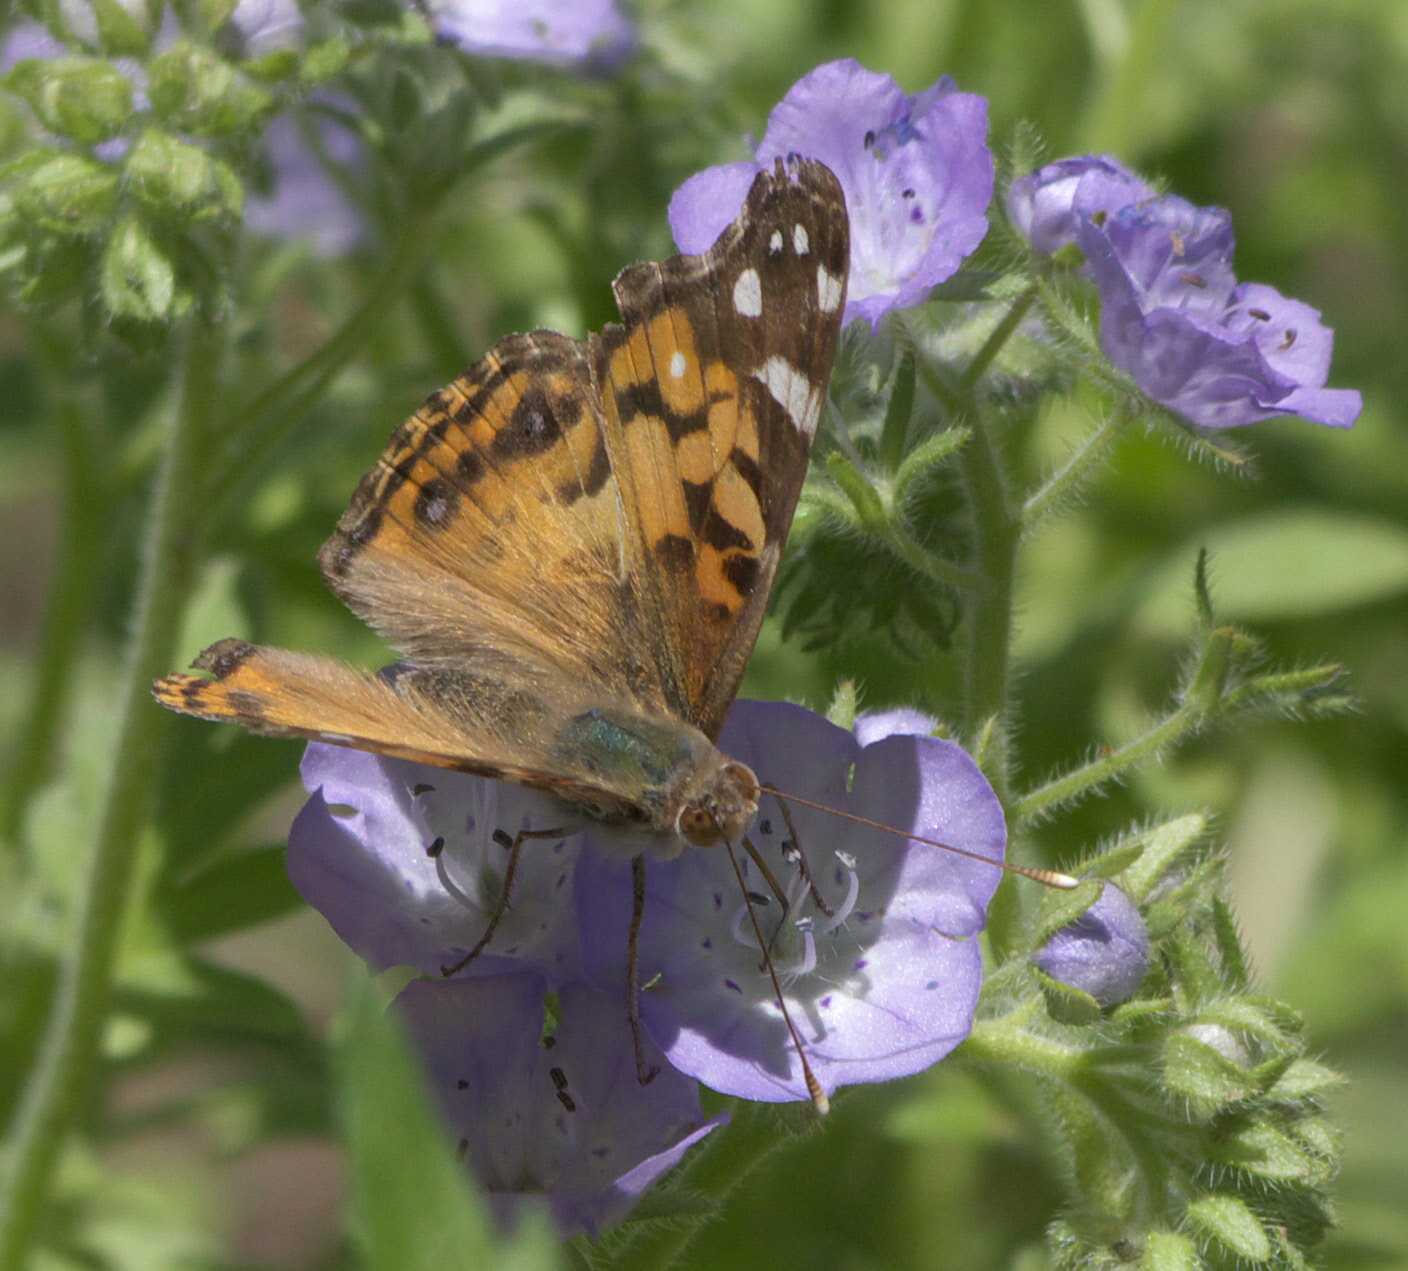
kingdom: Animalia
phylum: Arthropoda
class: Insecta
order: Lepidoptera
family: Nymphalidae
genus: Vanessa
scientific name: Vanessa virginiensis
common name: American lady
